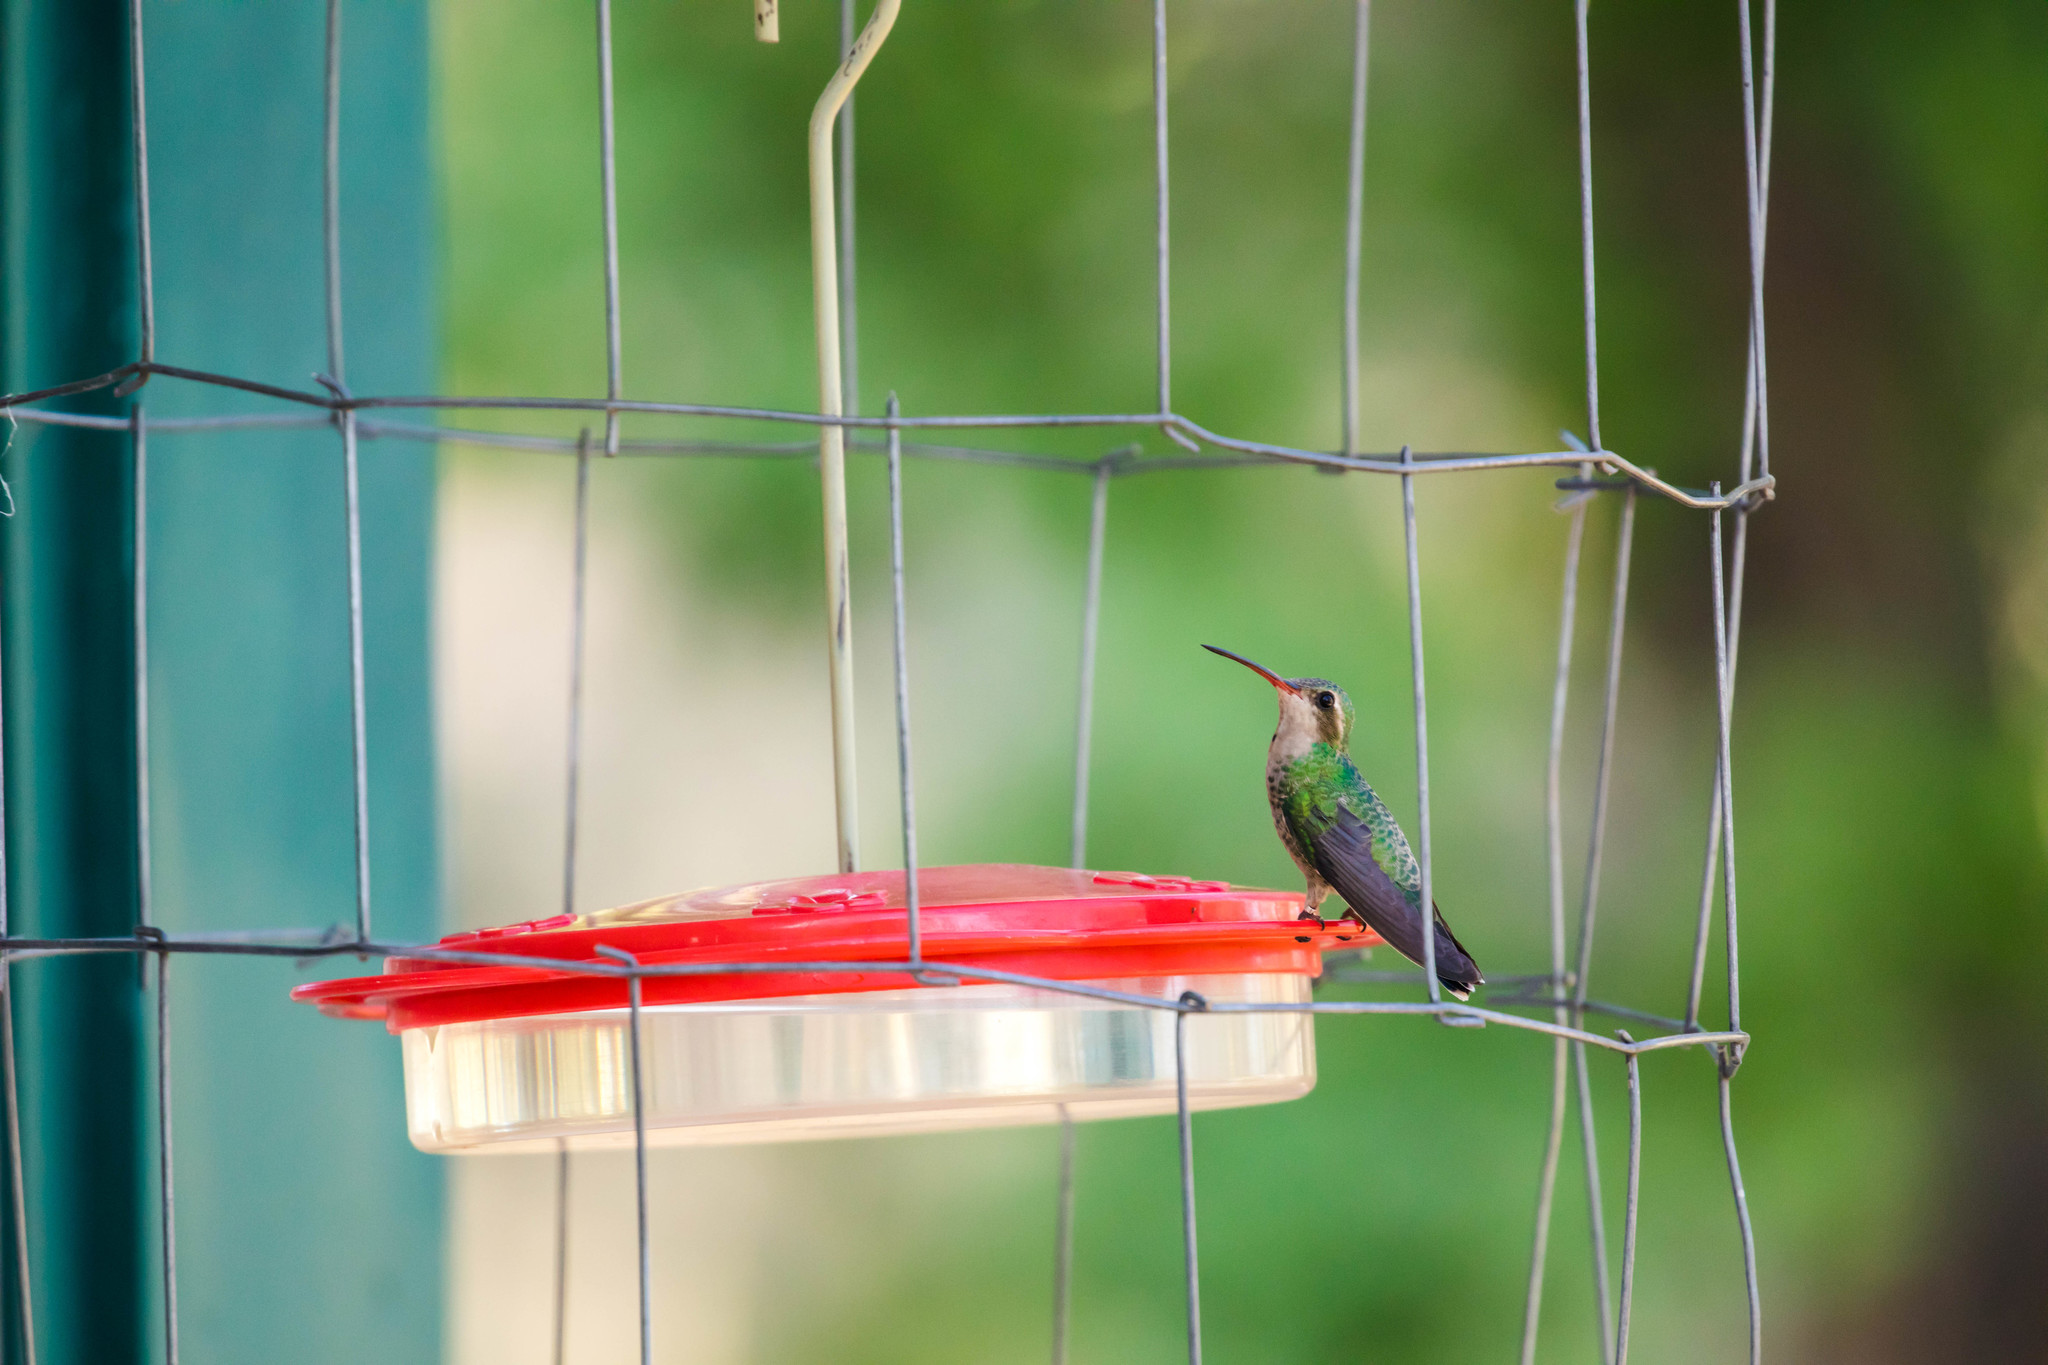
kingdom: Animalia
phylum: Chordata
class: Aves
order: Apodiformes
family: Trochilidae
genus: Cynanthus
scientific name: Cynanthus latirostris
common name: Broad-billed hummingbird
